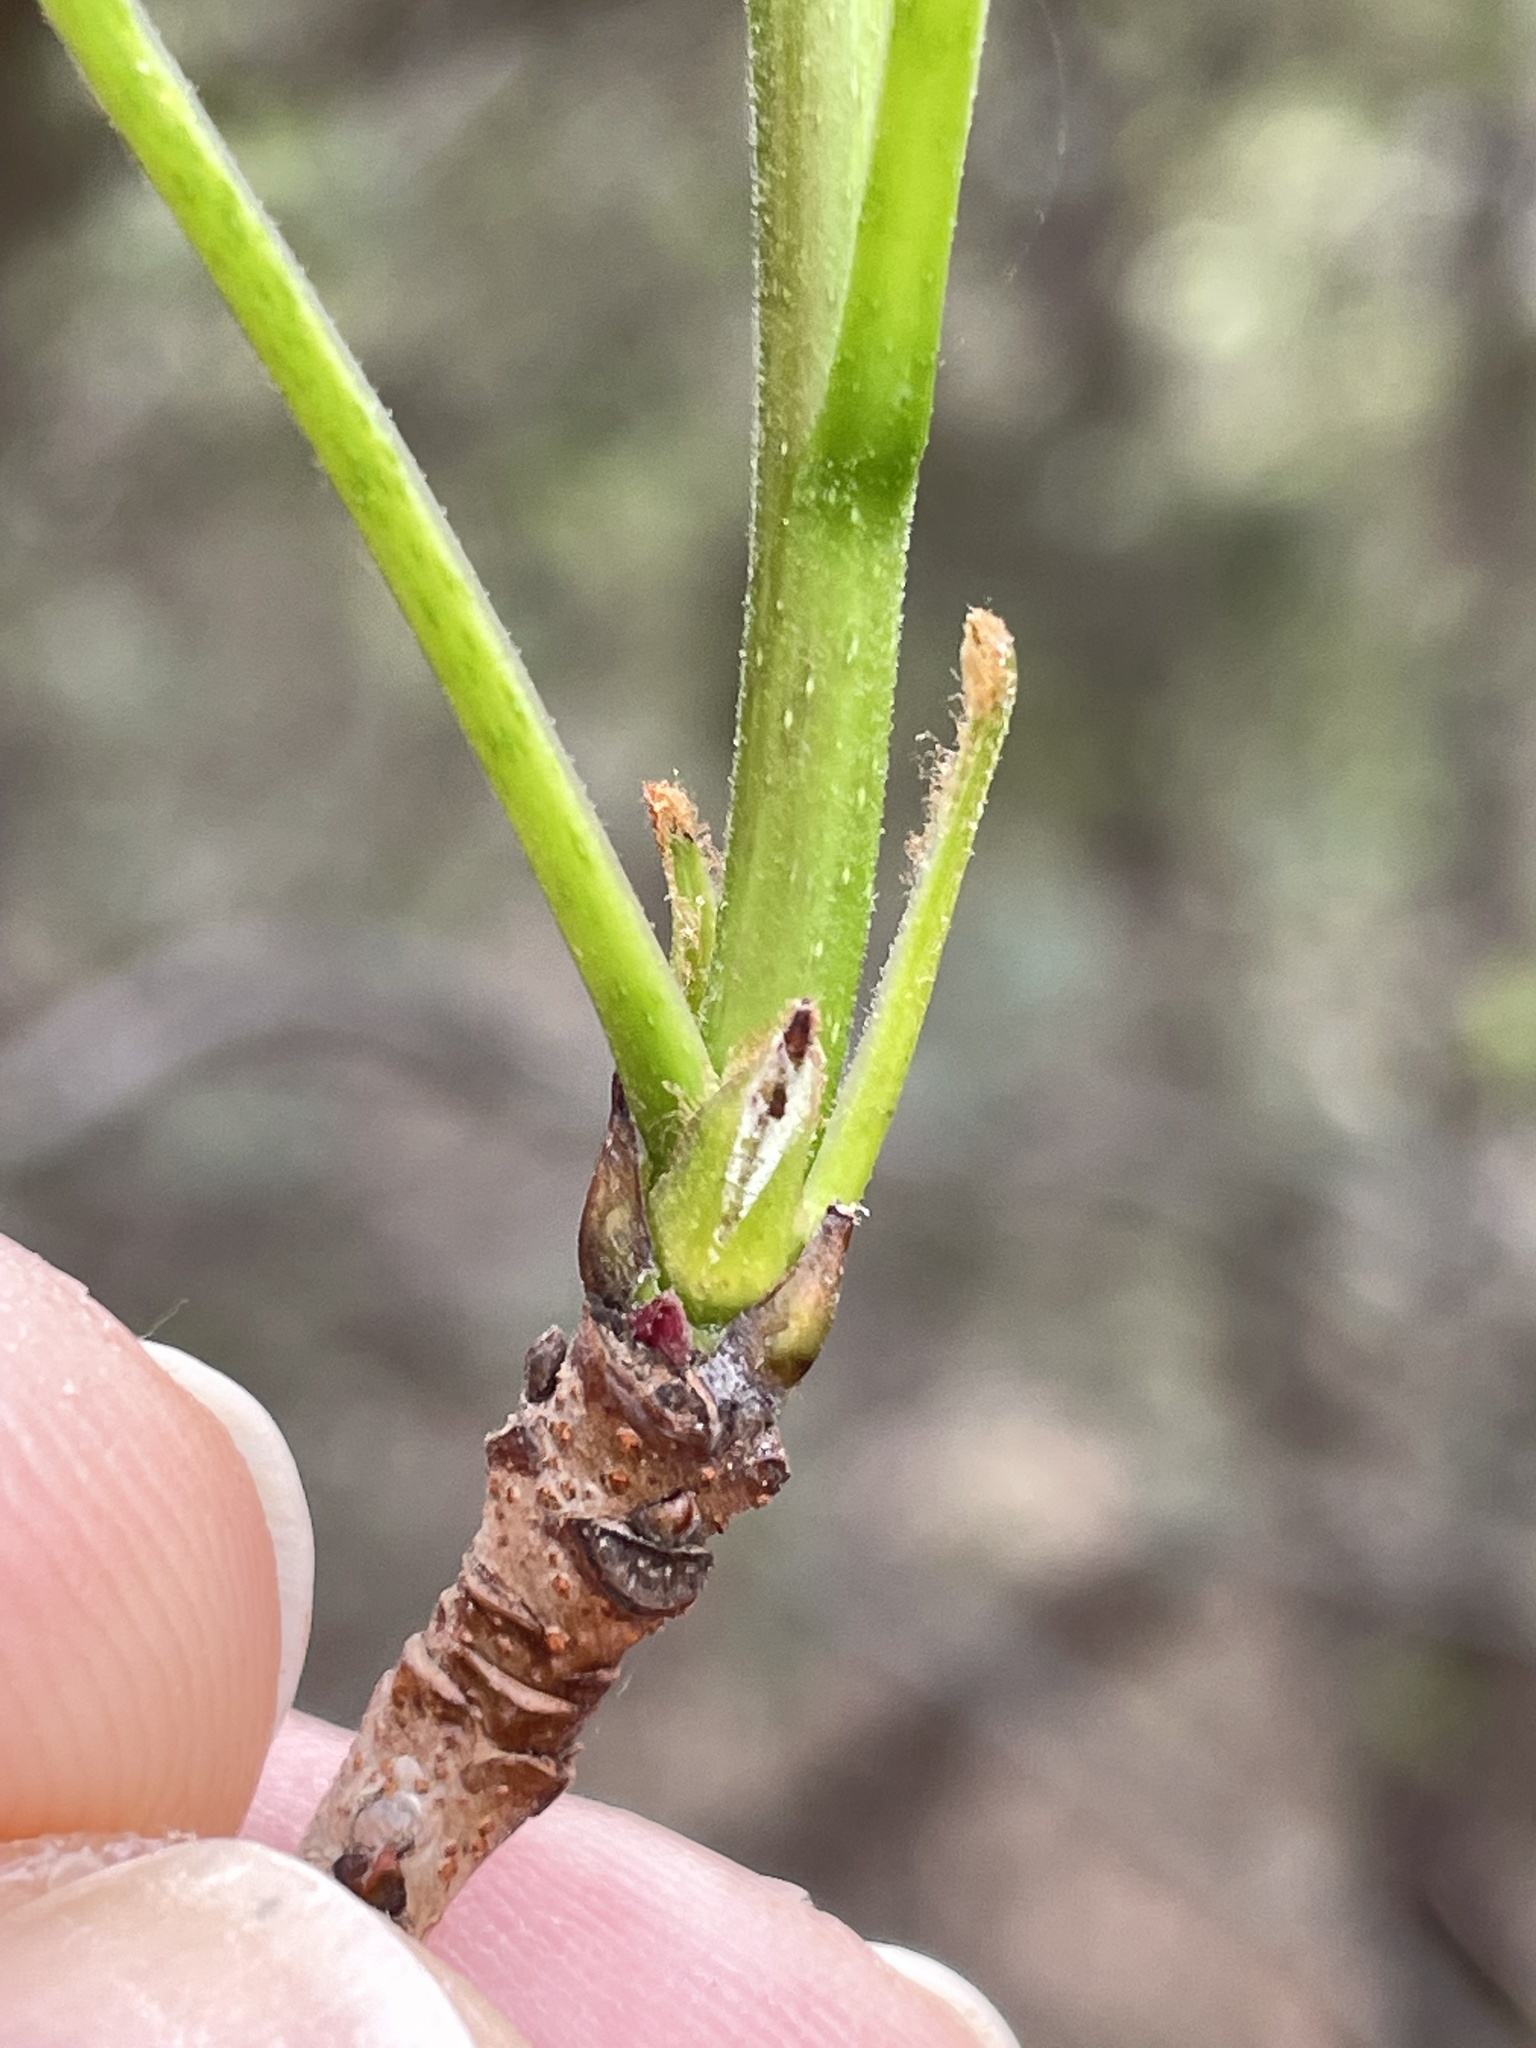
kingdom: Plantae
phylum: Tracheophyta
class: Magnoliopsida
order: Sapindales
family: Anacardiaceae
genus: Pistacia
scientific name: Pistacia chinensis
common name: Chinese pistache
